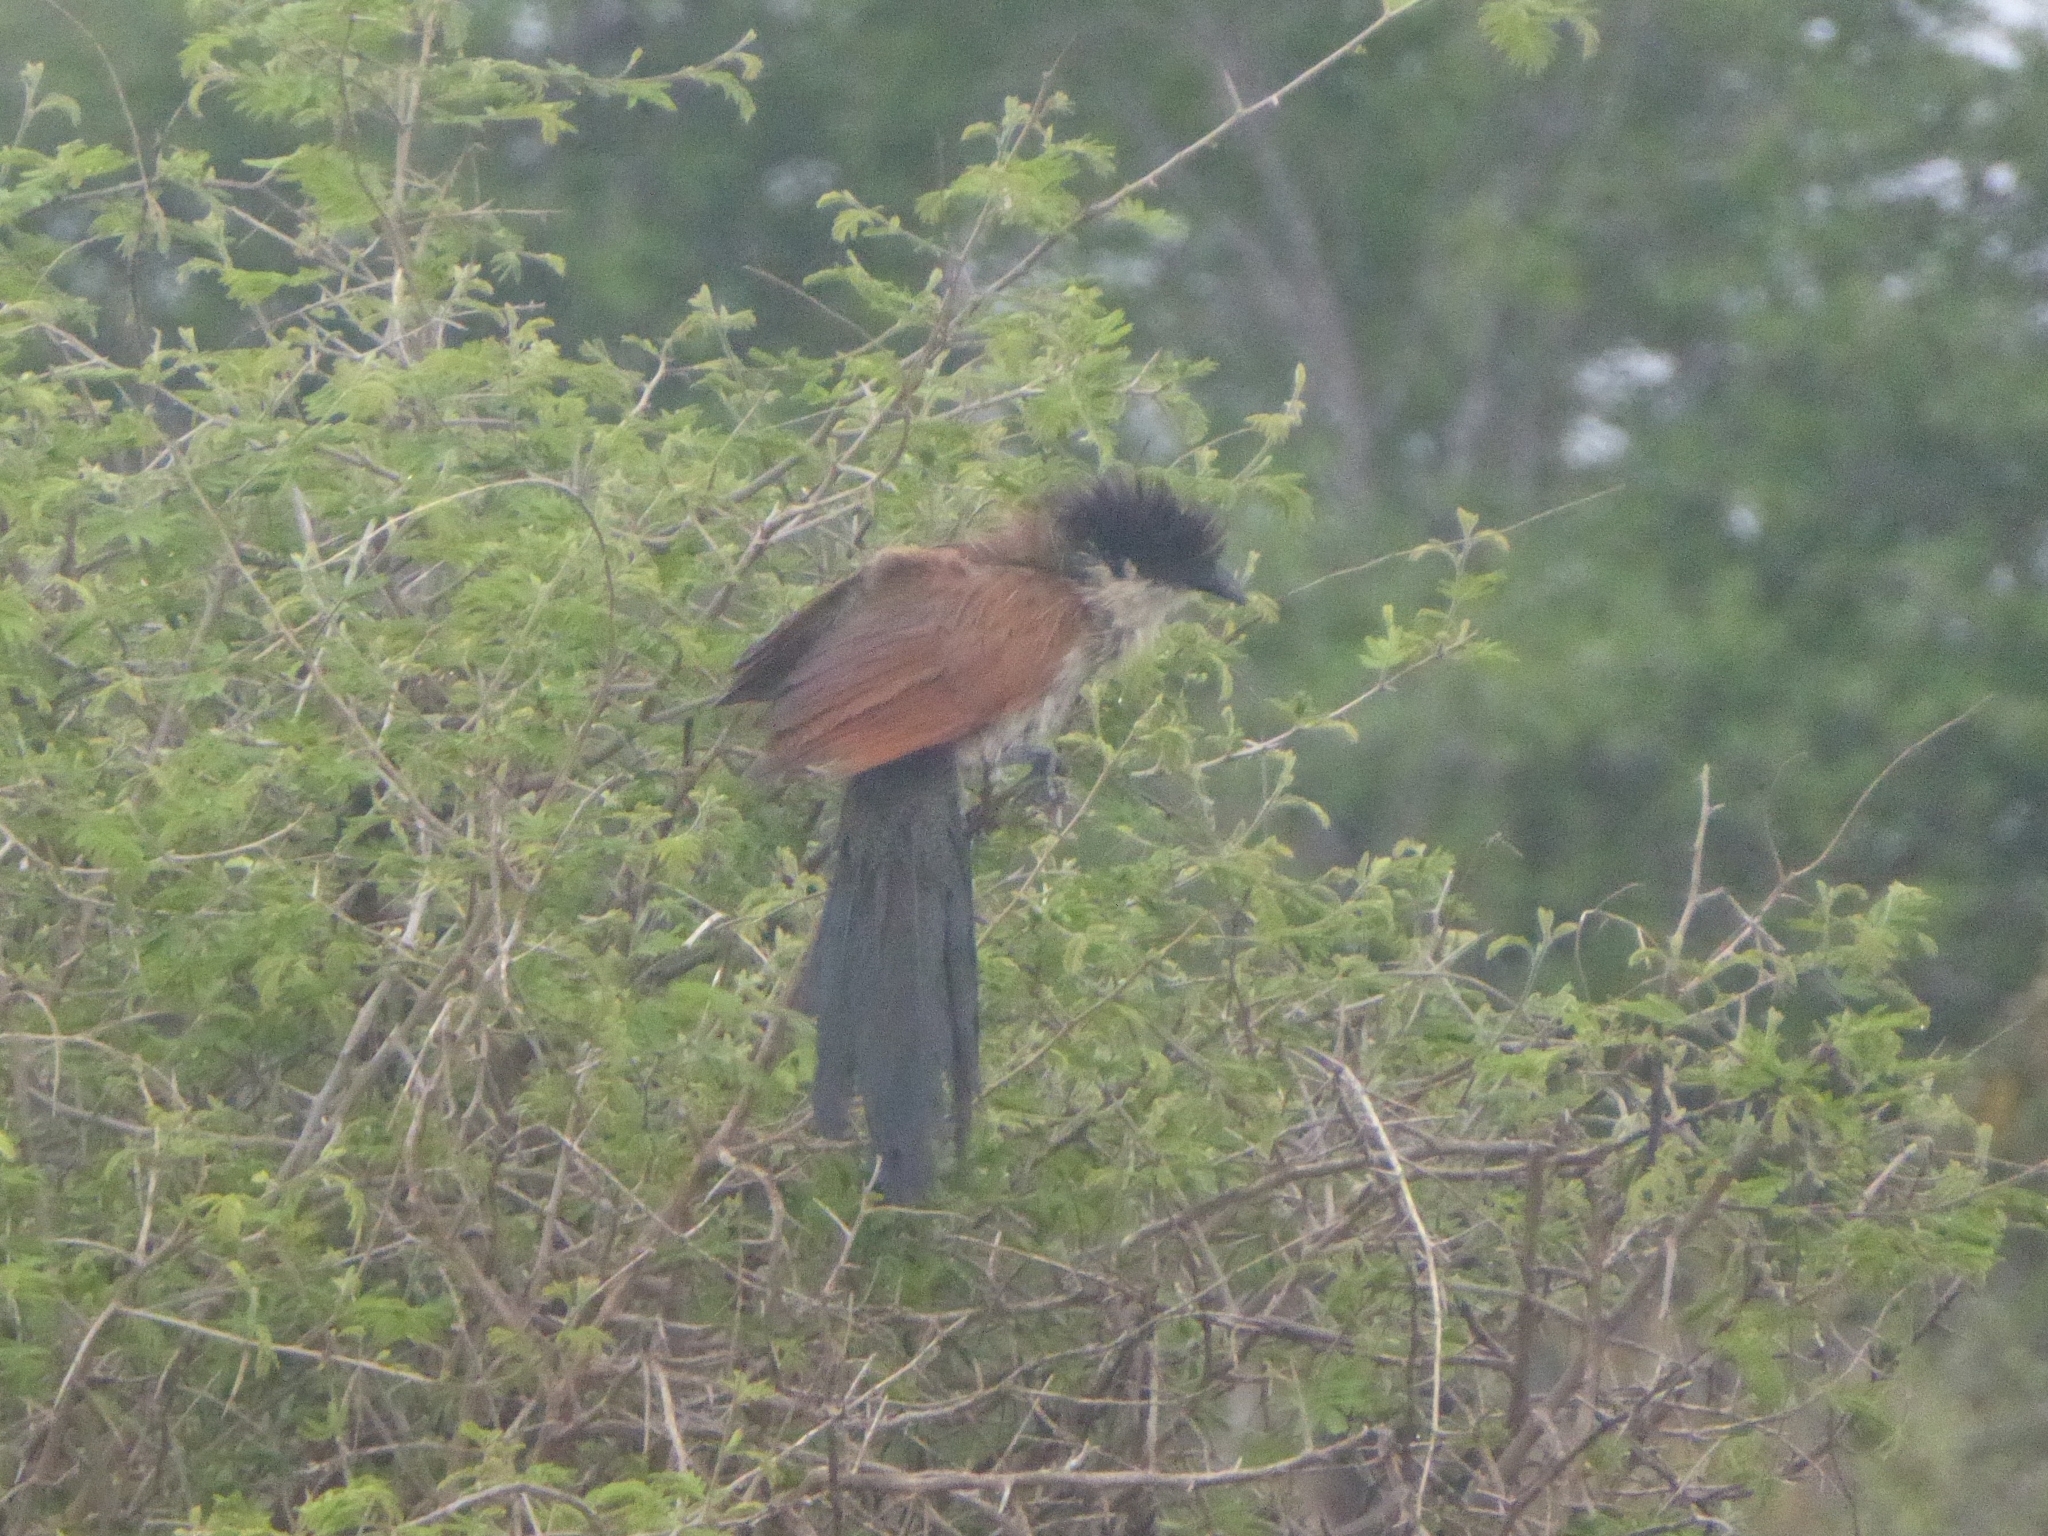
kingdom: Animalia
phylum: Chordata
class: Aves
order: Cuculiformes
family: Cuculidae
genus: Centropus
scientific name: Centropus superciliosus
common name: White-browed coucal
